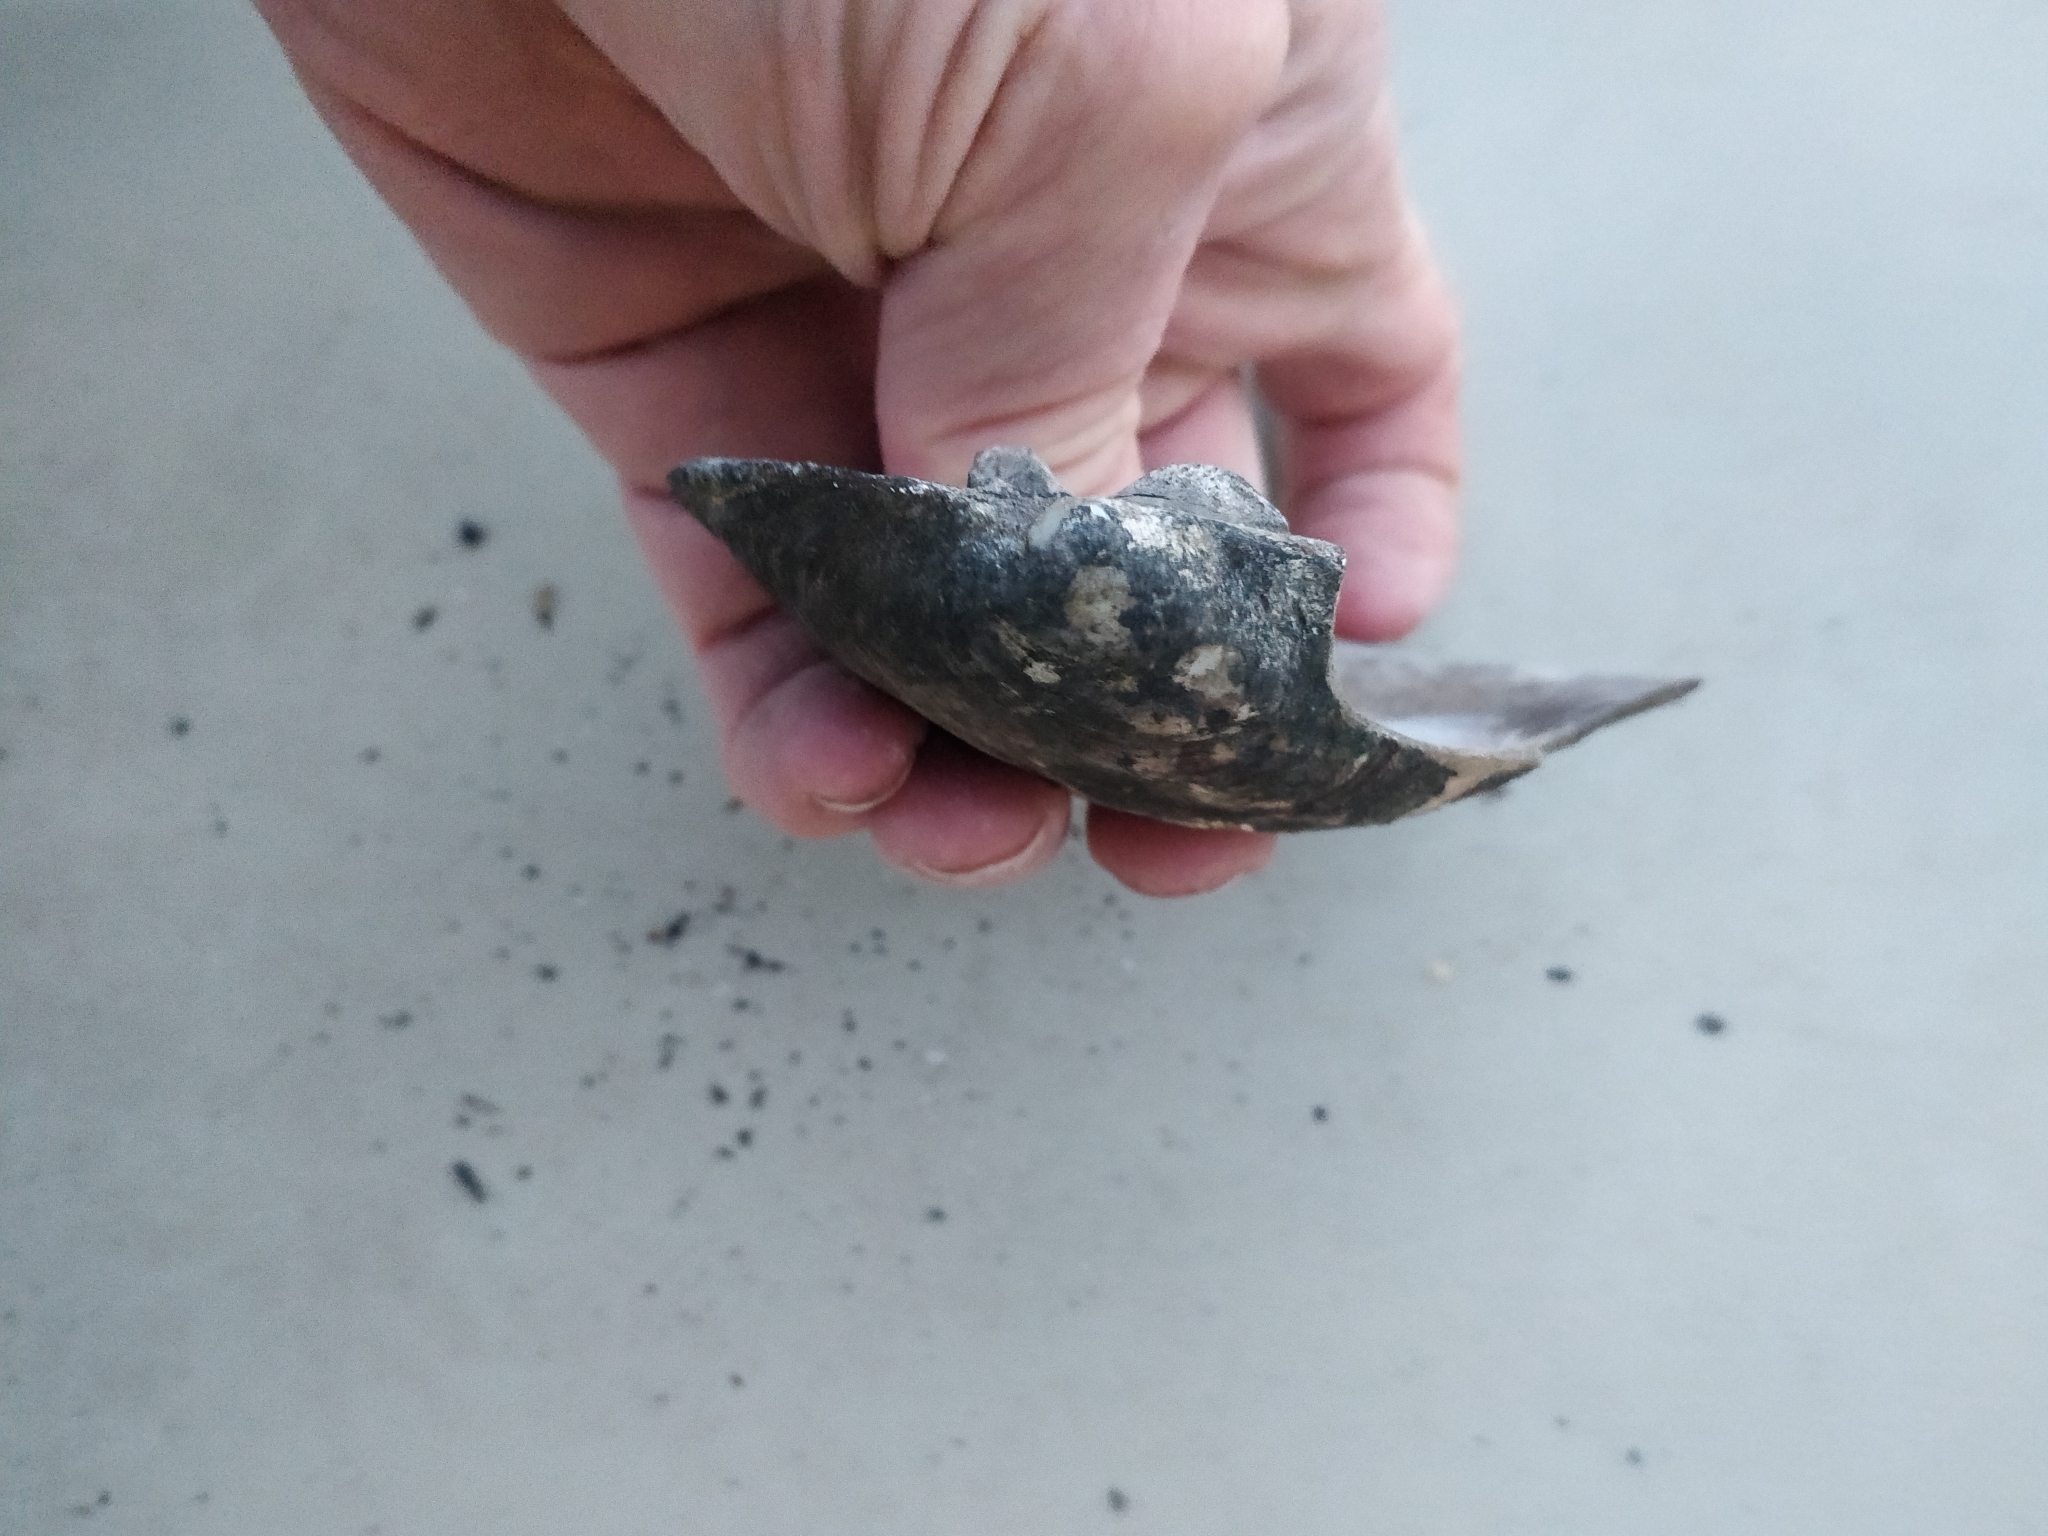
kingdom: Animalia
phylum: Mollusca
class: Bivalvia
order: Unionida
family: Unionidae
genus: Amblema
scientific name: Amblema plicata
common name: Threeridge
